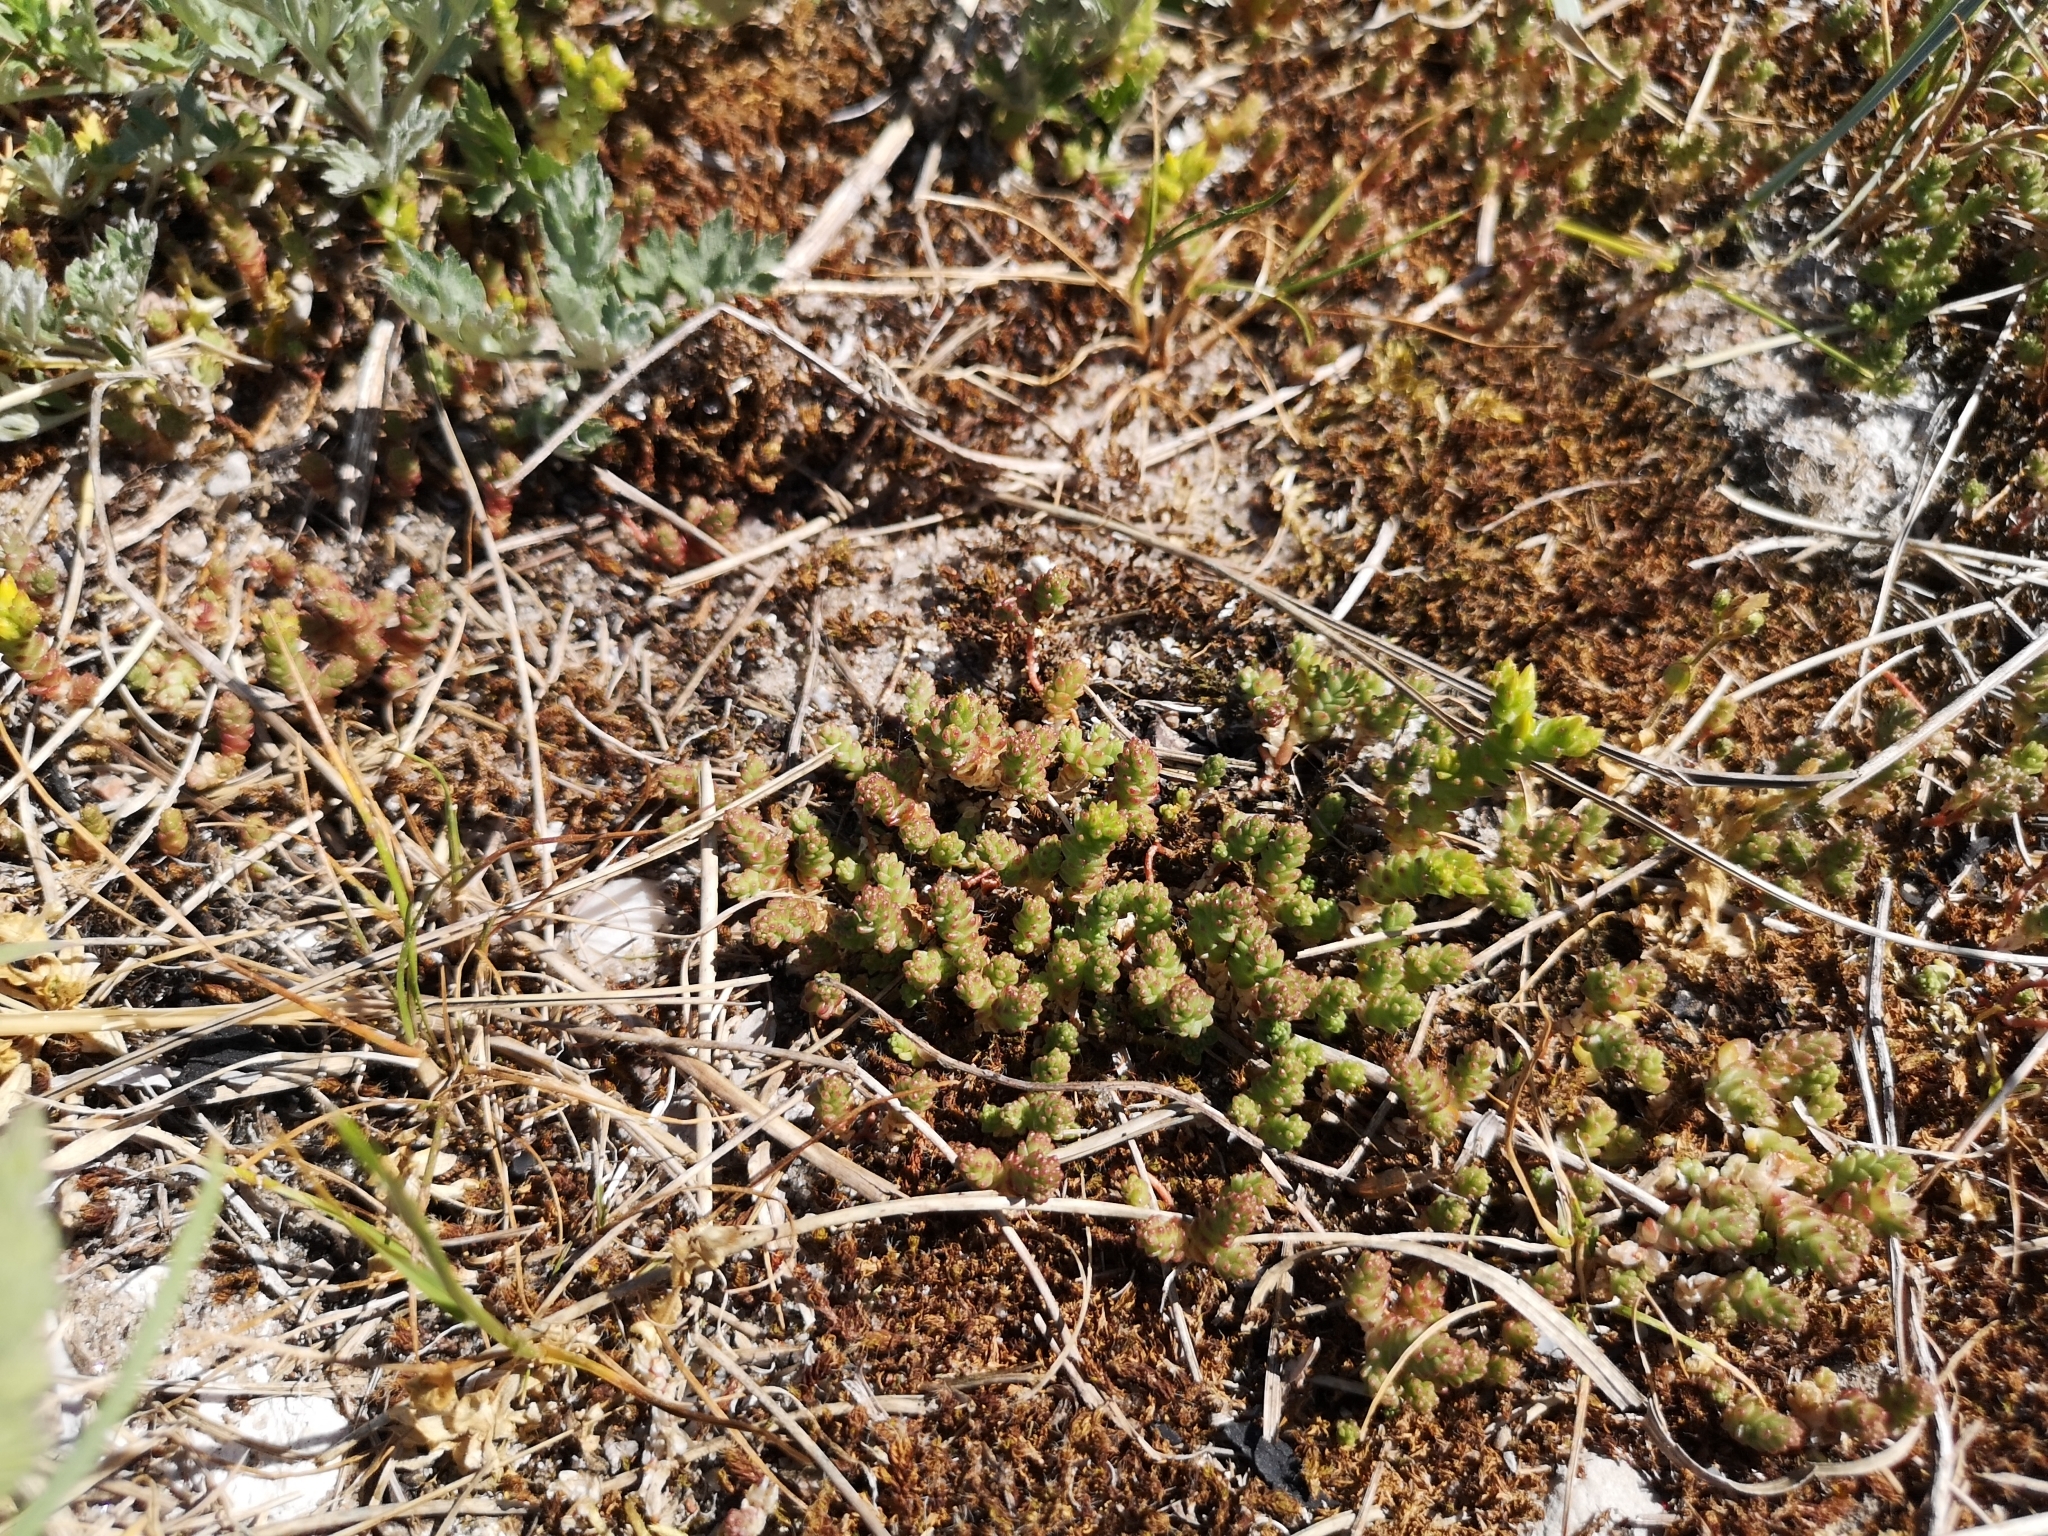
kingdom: Plantae
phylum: Tracheophyta
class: Magnoliopsida
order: Saxifragales
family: Crassulaceae
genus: Sedum
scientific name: Sedum acre
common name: Biting stonecrop
